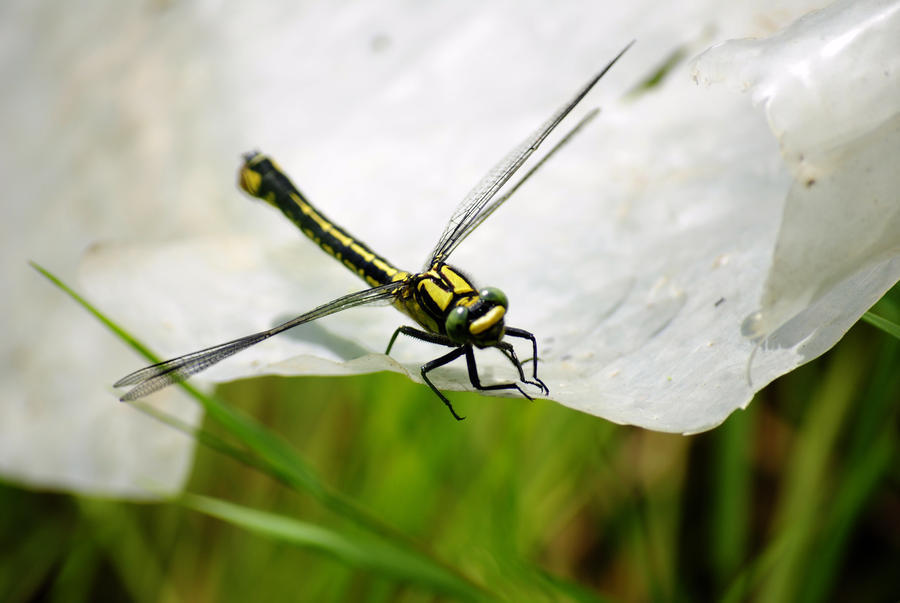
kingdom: Animalia
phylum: Arthropoda
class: Insecta
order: Odonata
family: Gomphidae
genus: Gomphus
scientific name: Gomphus vulgatissimus
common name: Club-tailed dragonfly
